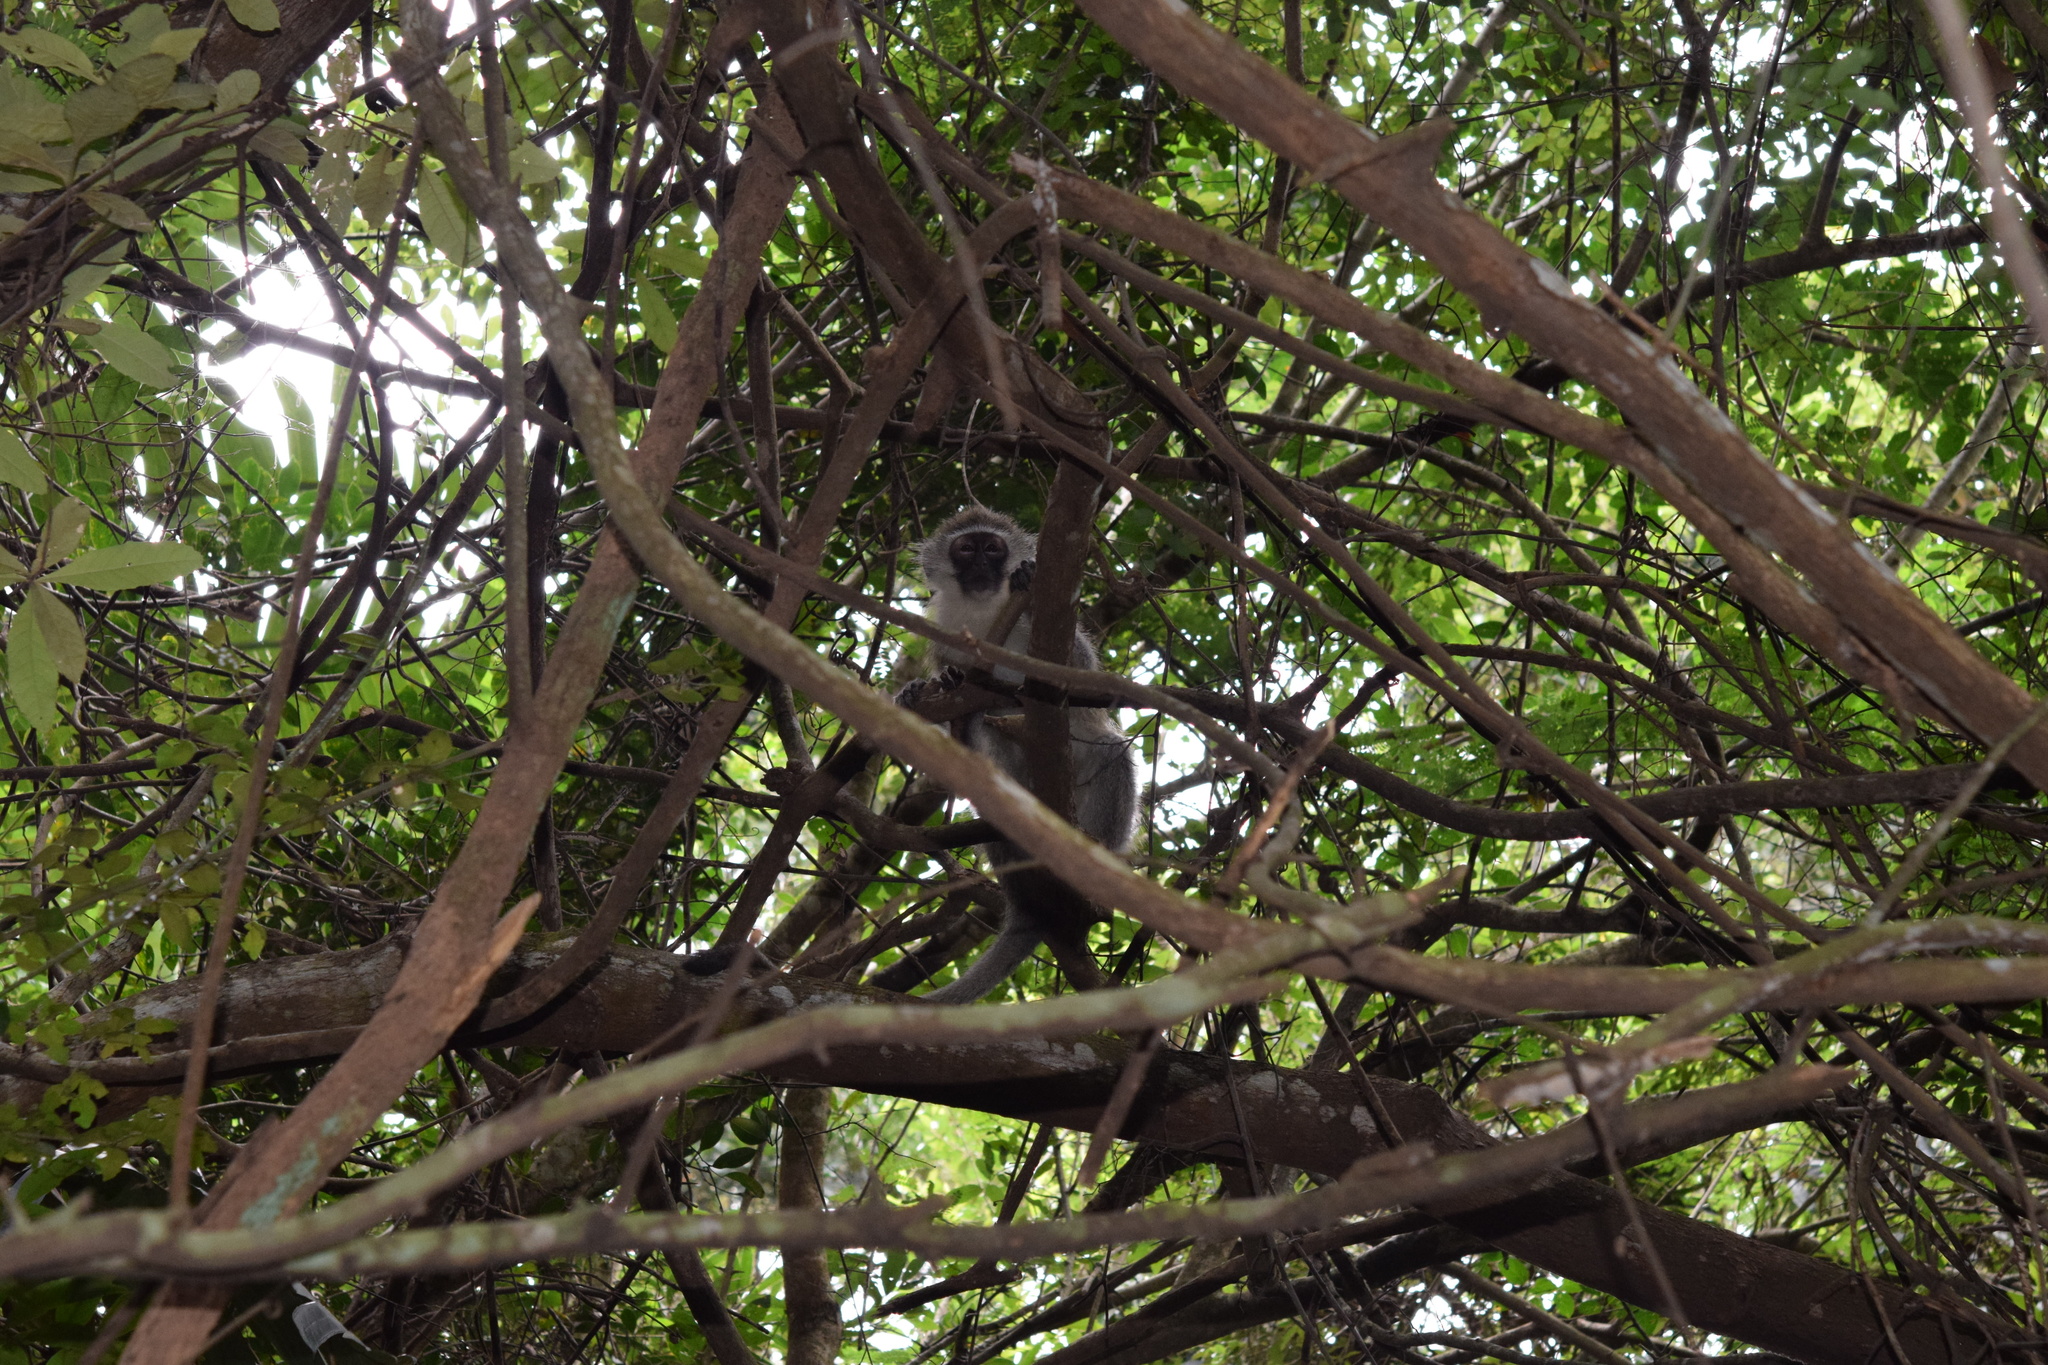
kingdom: Animalia
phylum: Chordata
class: Mammalia
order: Primates
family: Cercopithecidae
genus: Chlorocebus
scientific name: Chlorocebus pygerythrus
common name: Vervet monkey
